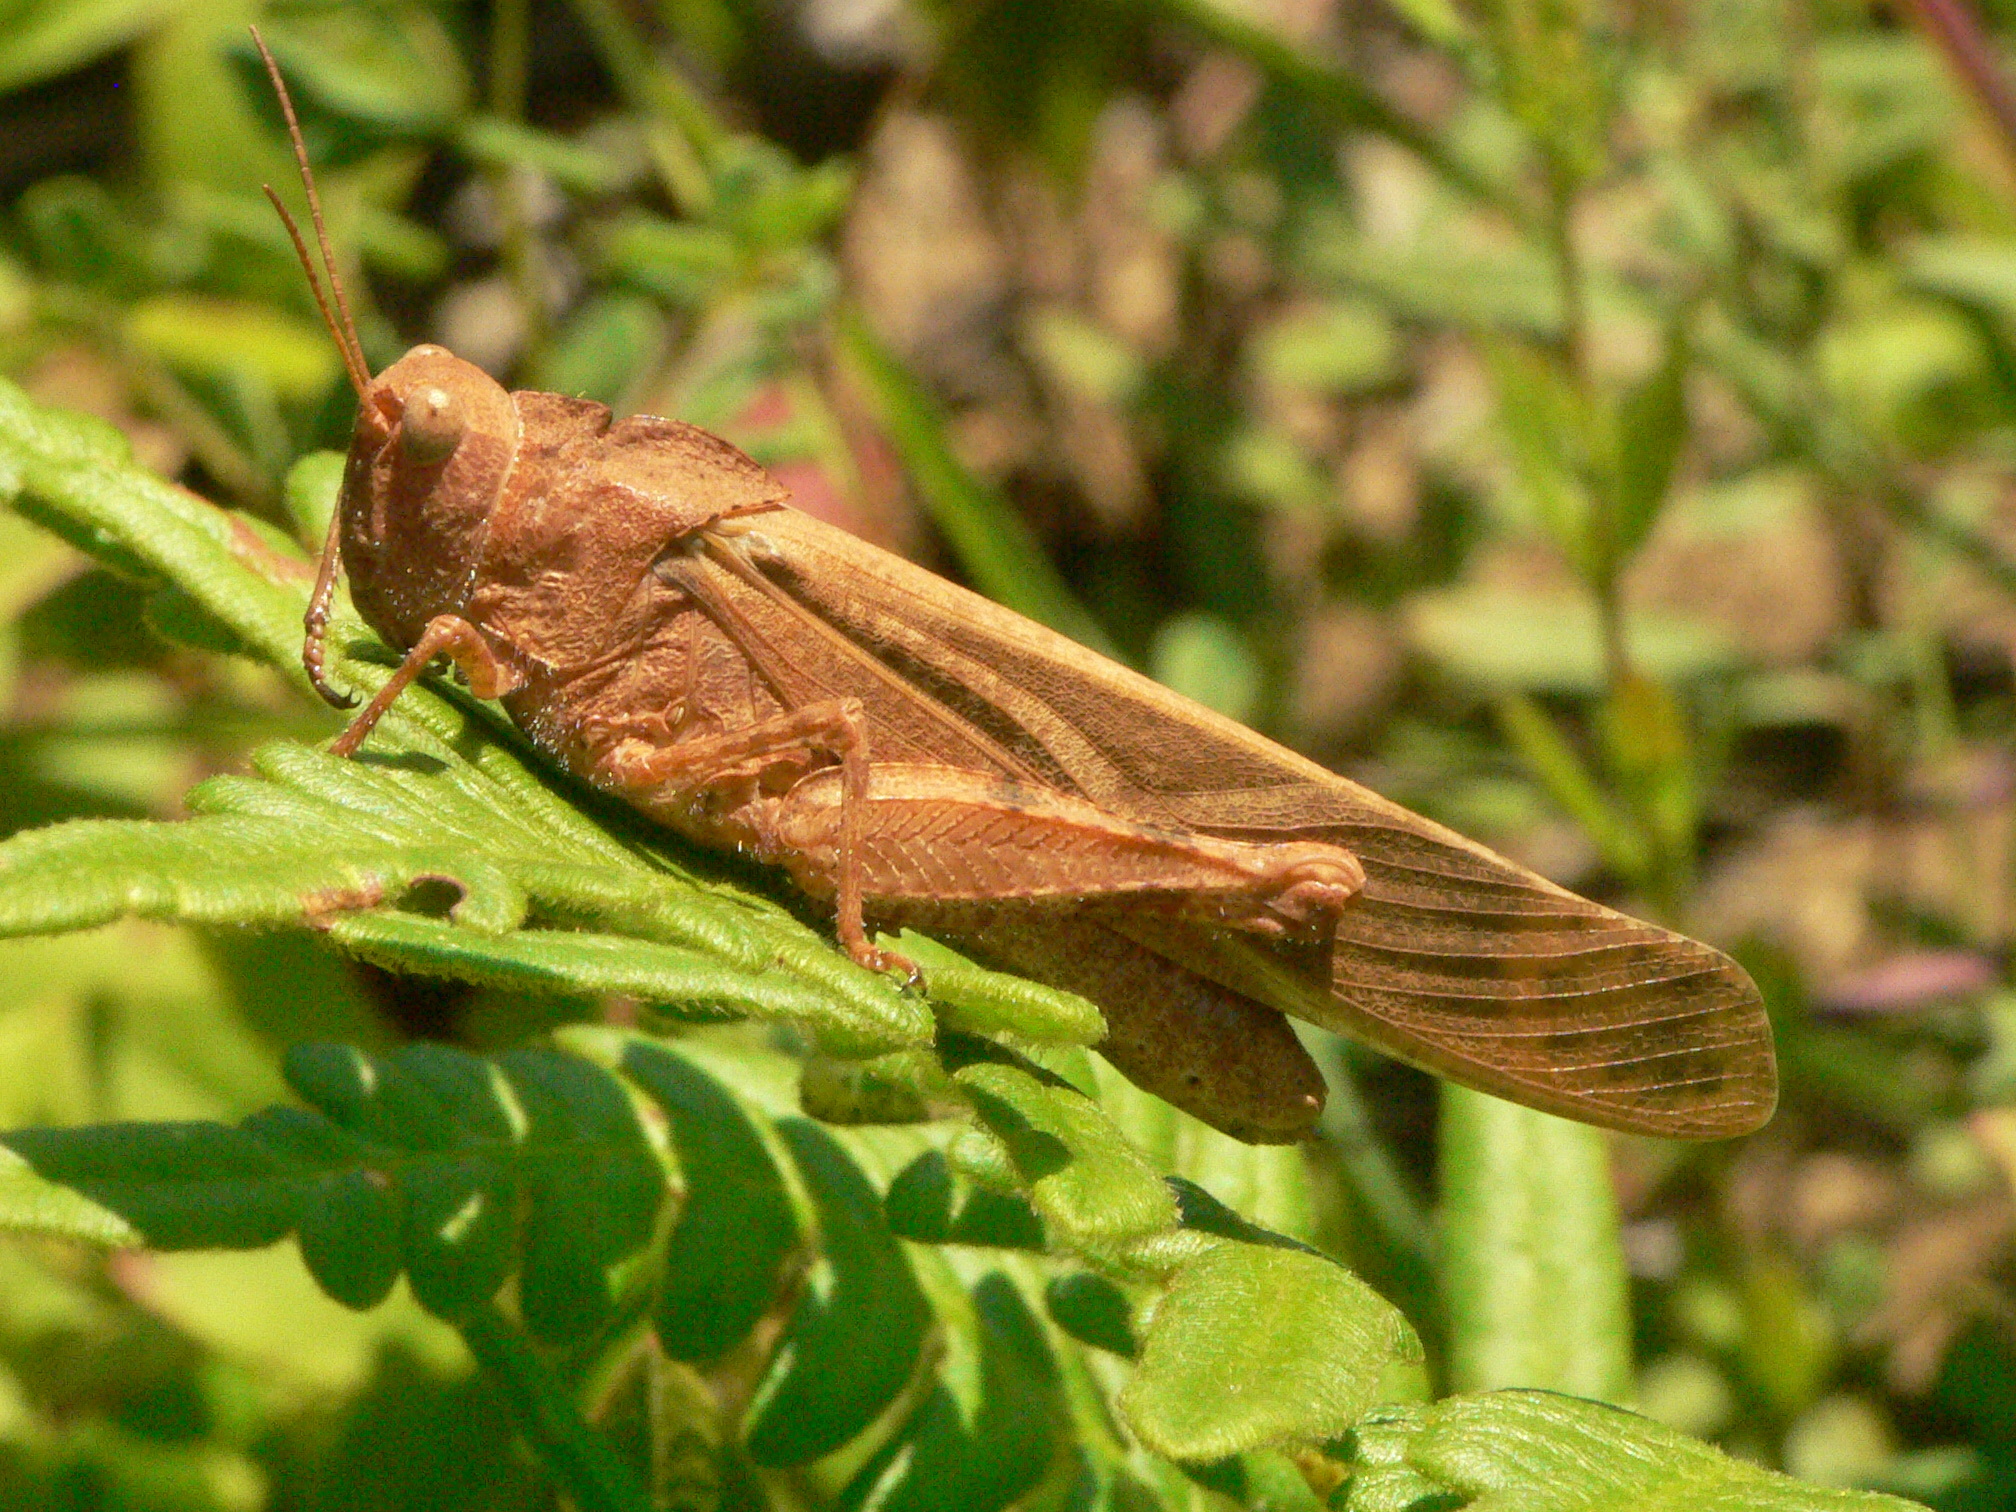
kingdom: Animalia
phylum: Arthropoda
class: Insecta
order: Orthoptera
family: Acrididae
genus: Dissosteira
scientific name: Dissosteira carolina
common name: Carolina grasshopper
